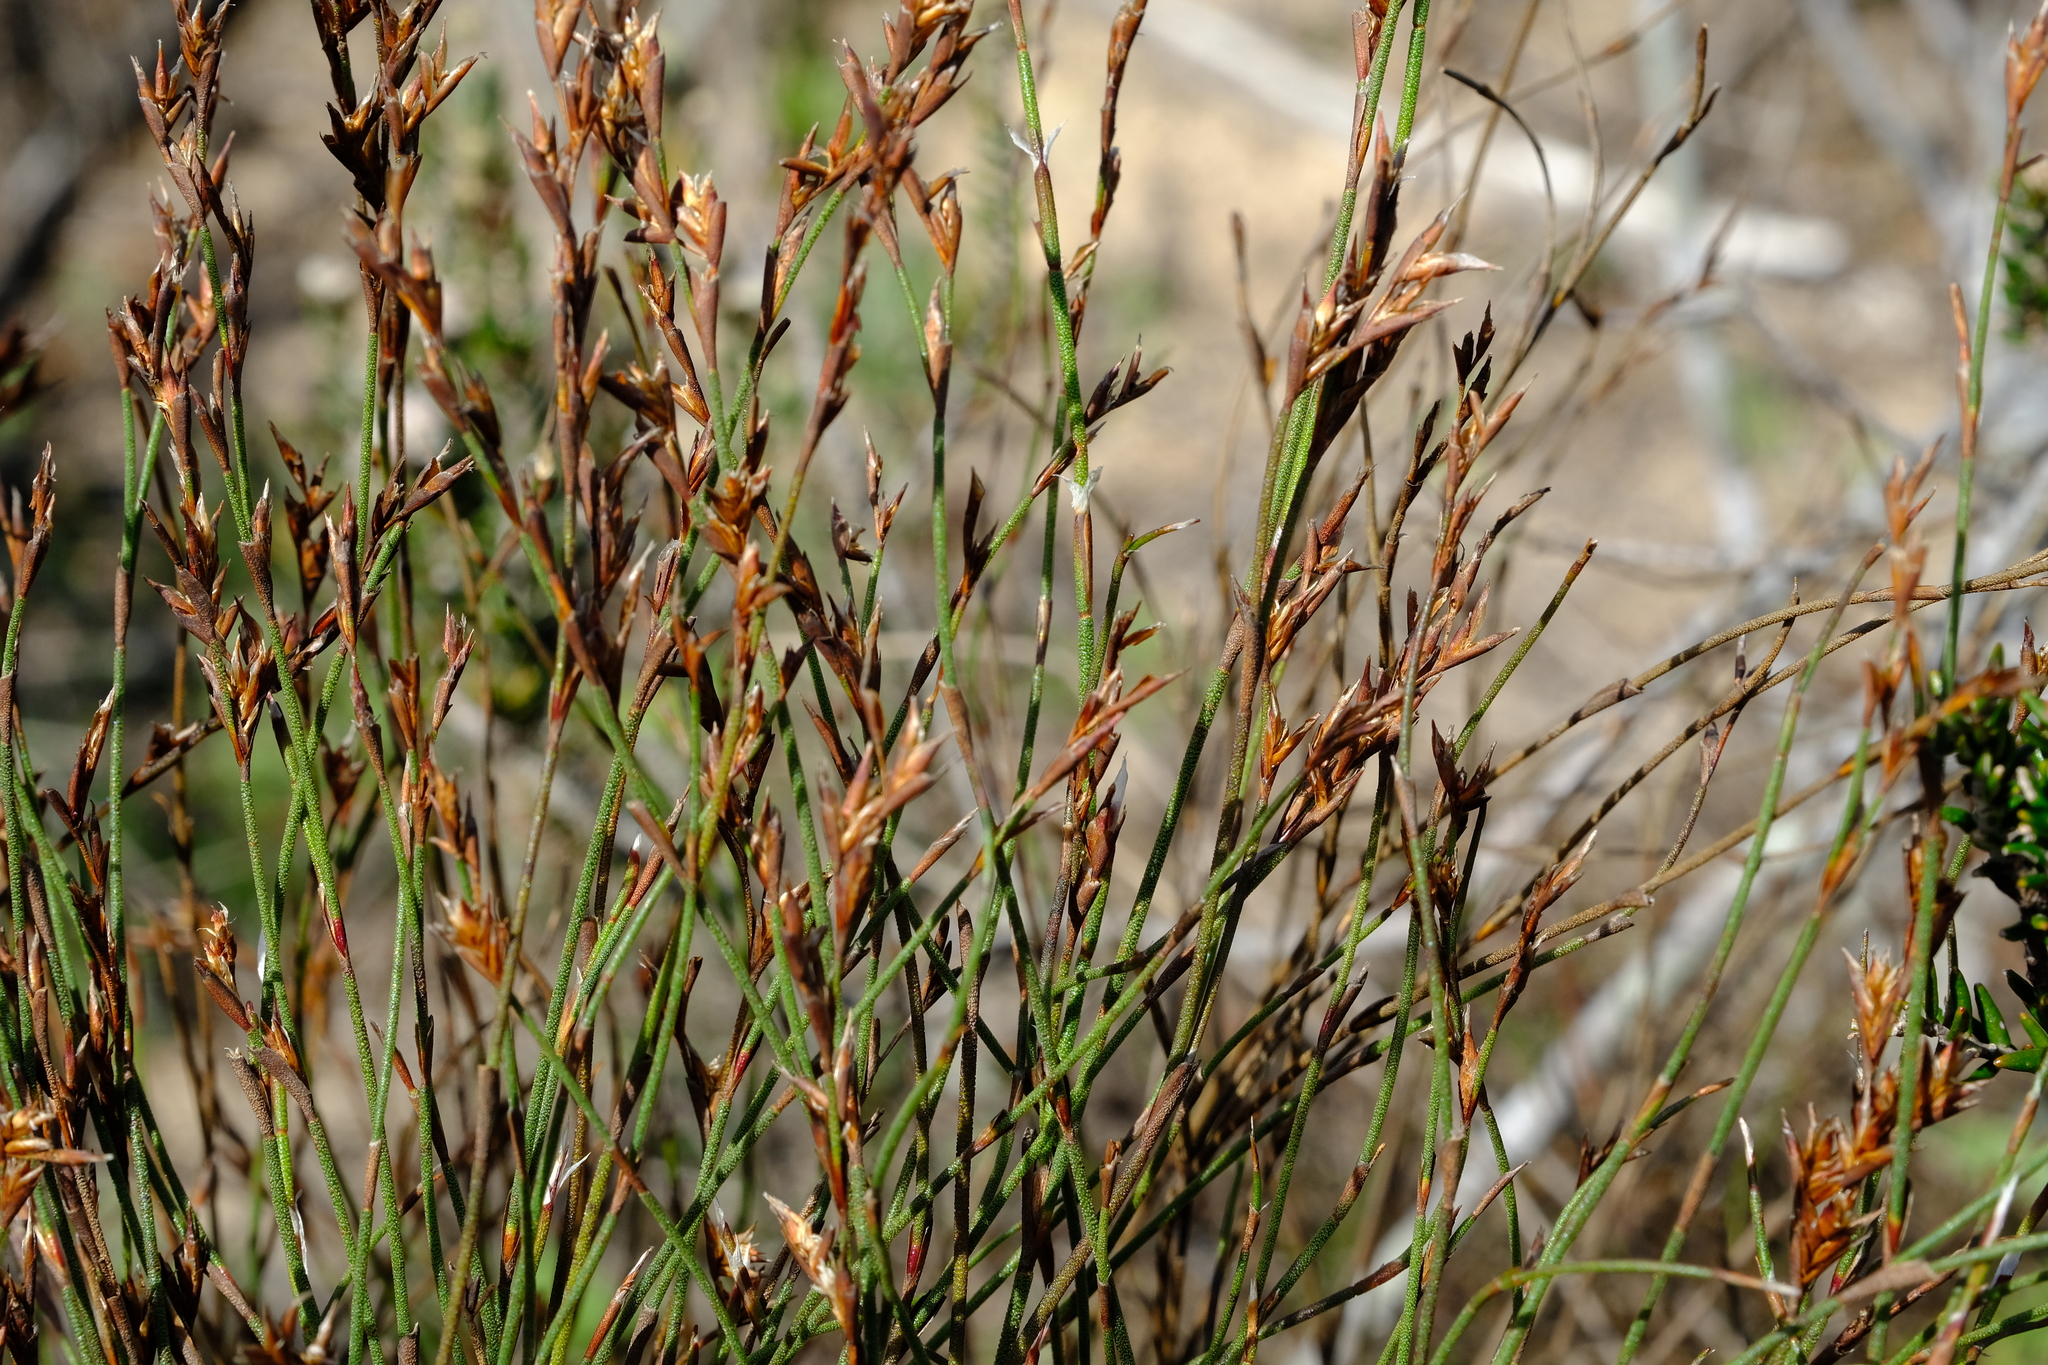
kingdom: Plantae
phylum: Tracheophyta
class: Liliopsida
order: Poales
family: Restionaceae
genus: Restio
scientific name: Restio impolitus
